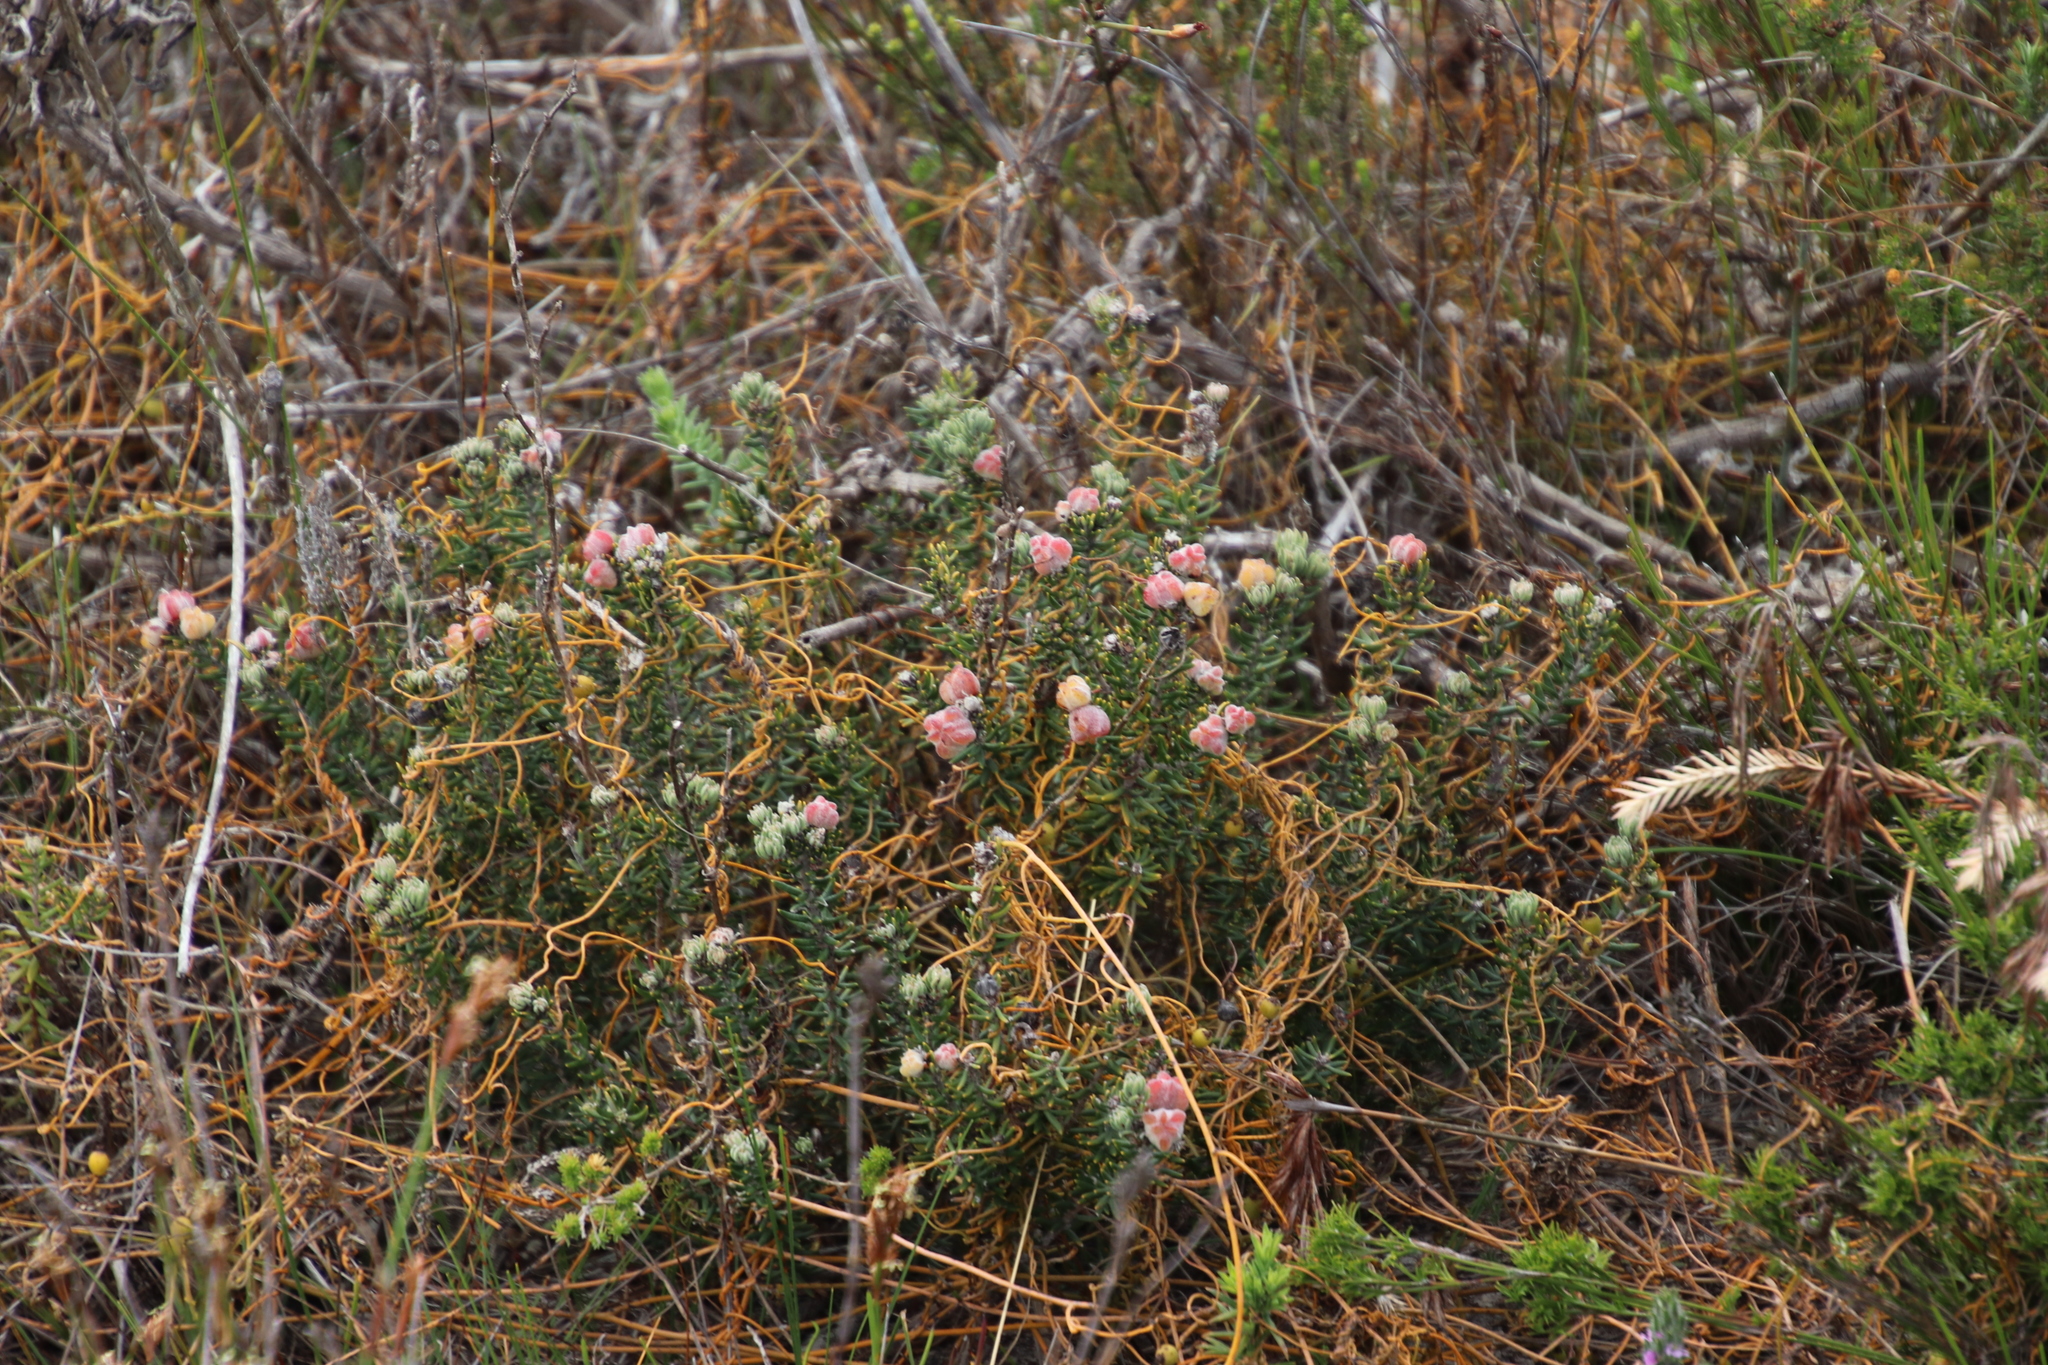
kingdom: Plantae
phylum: Tracheophyta
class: Magnoliopsida
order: Rosales
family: Rhamnaceae
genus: Trichocephalus
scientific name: Trichocephalus stipularis
